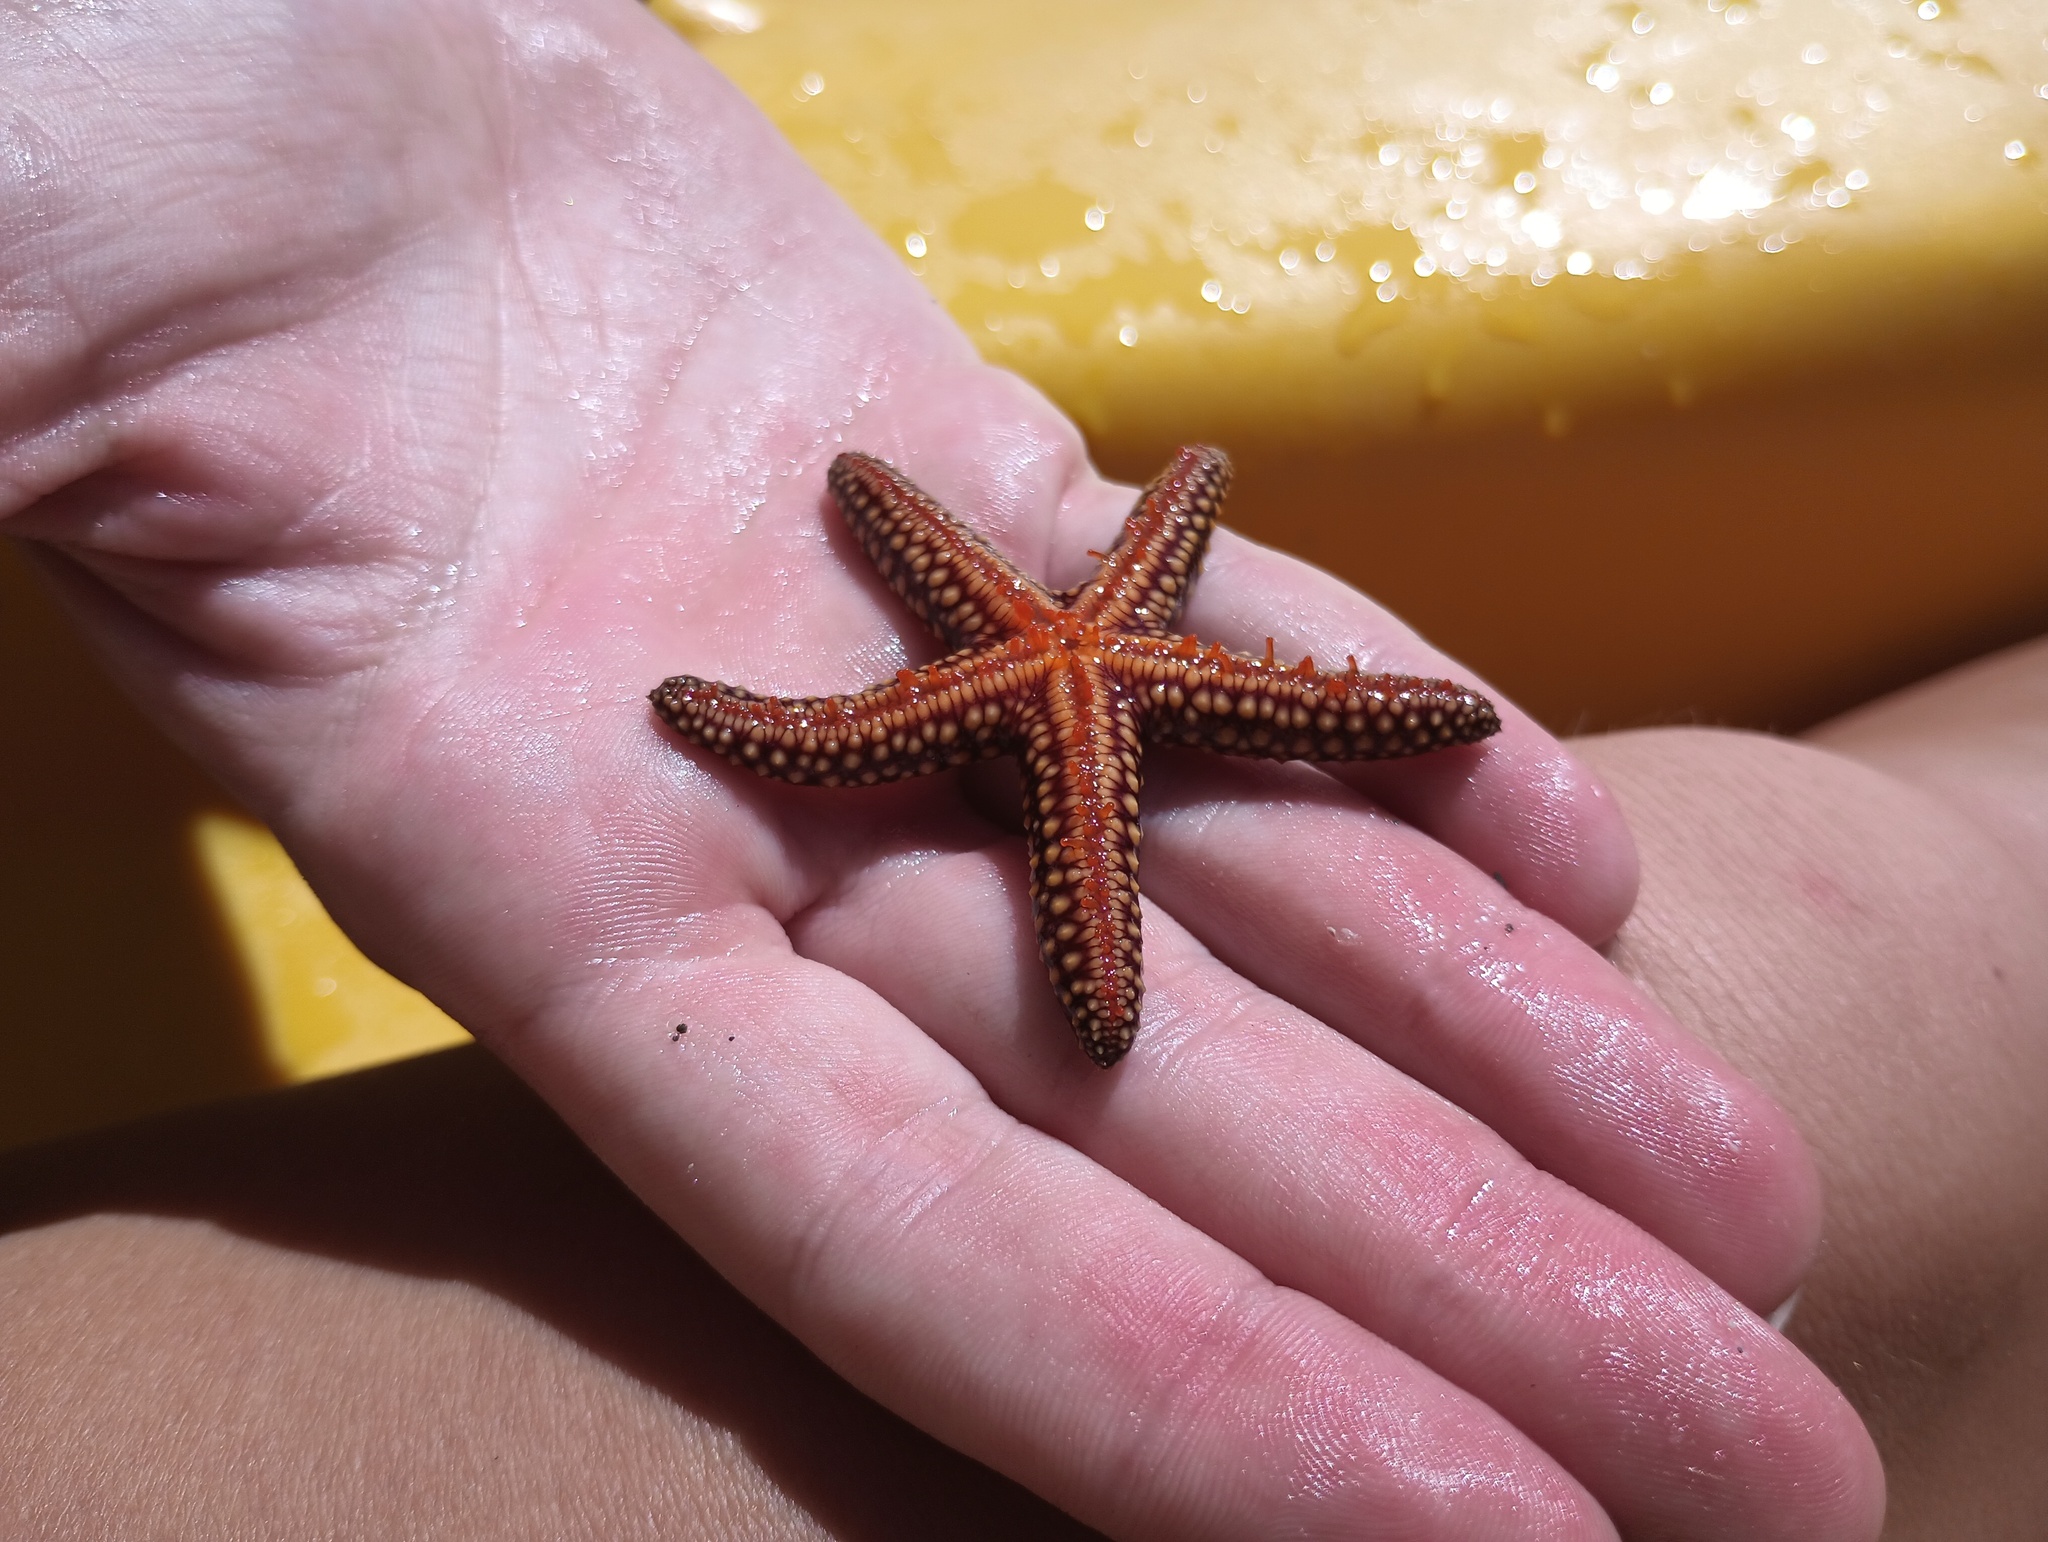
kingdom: Animalia
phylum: Echinodermata
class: Asteroidea
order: Spinulosida
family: Echinasteridae
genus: Echinaster
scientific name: Echinaster sentus
